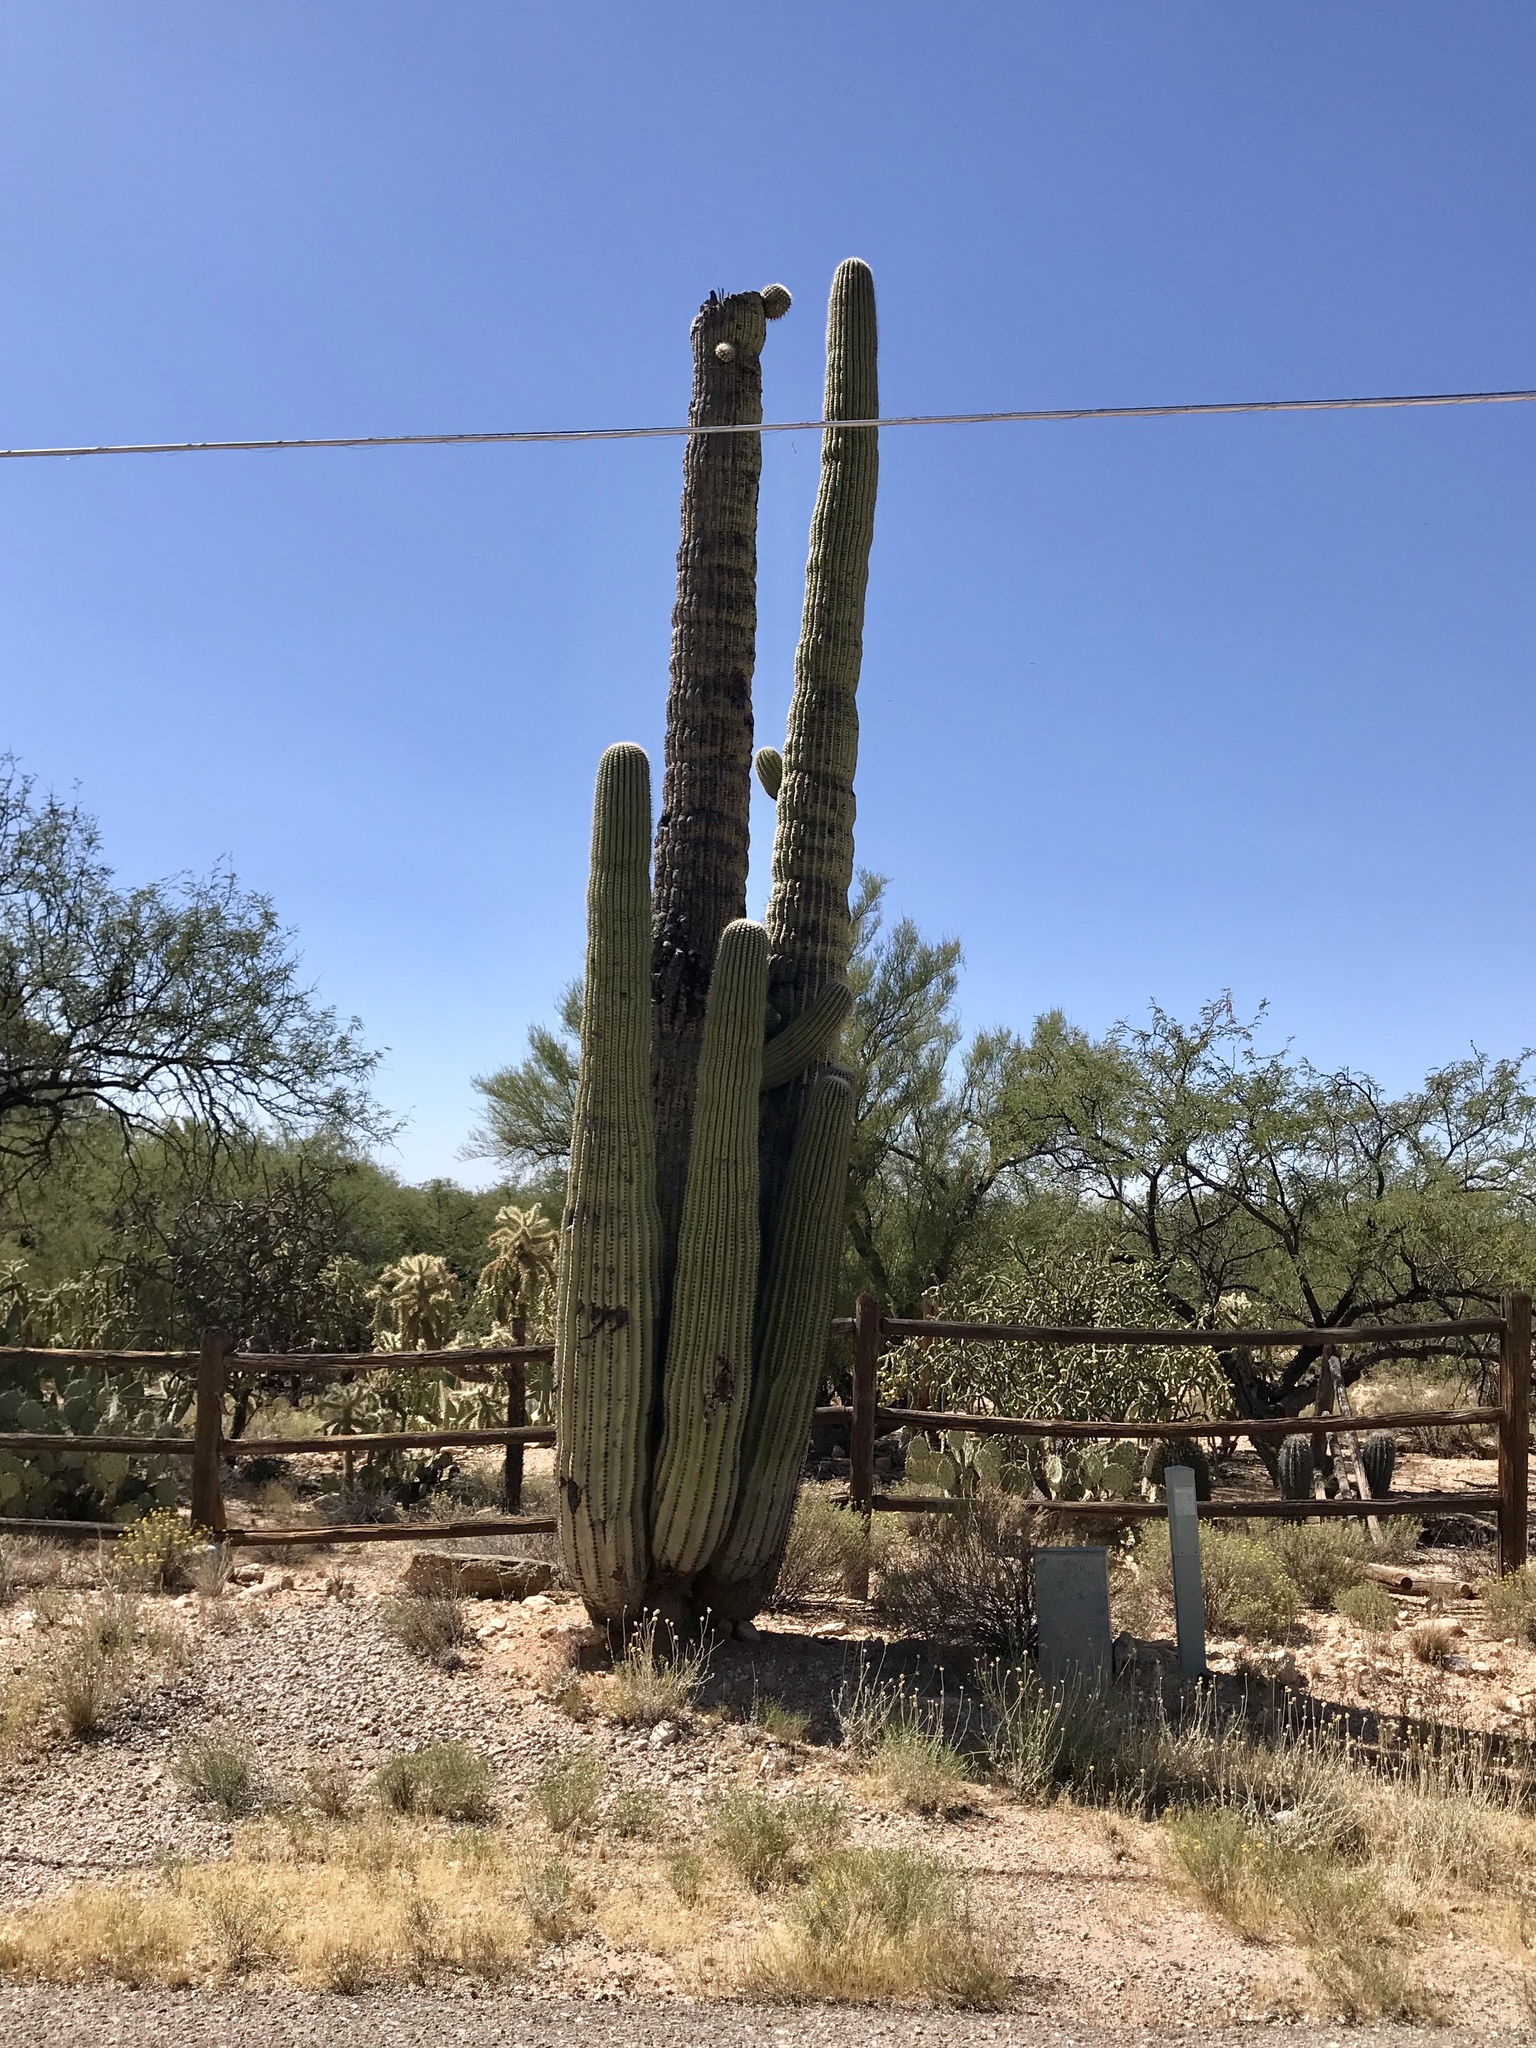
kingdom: Plantae
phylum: Tracheophyta
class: Magnoliopsida
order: Caryophyllales
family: Cactaceae
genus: Carnegiea
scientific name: Carnegiea gigantea
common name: Saguaro
